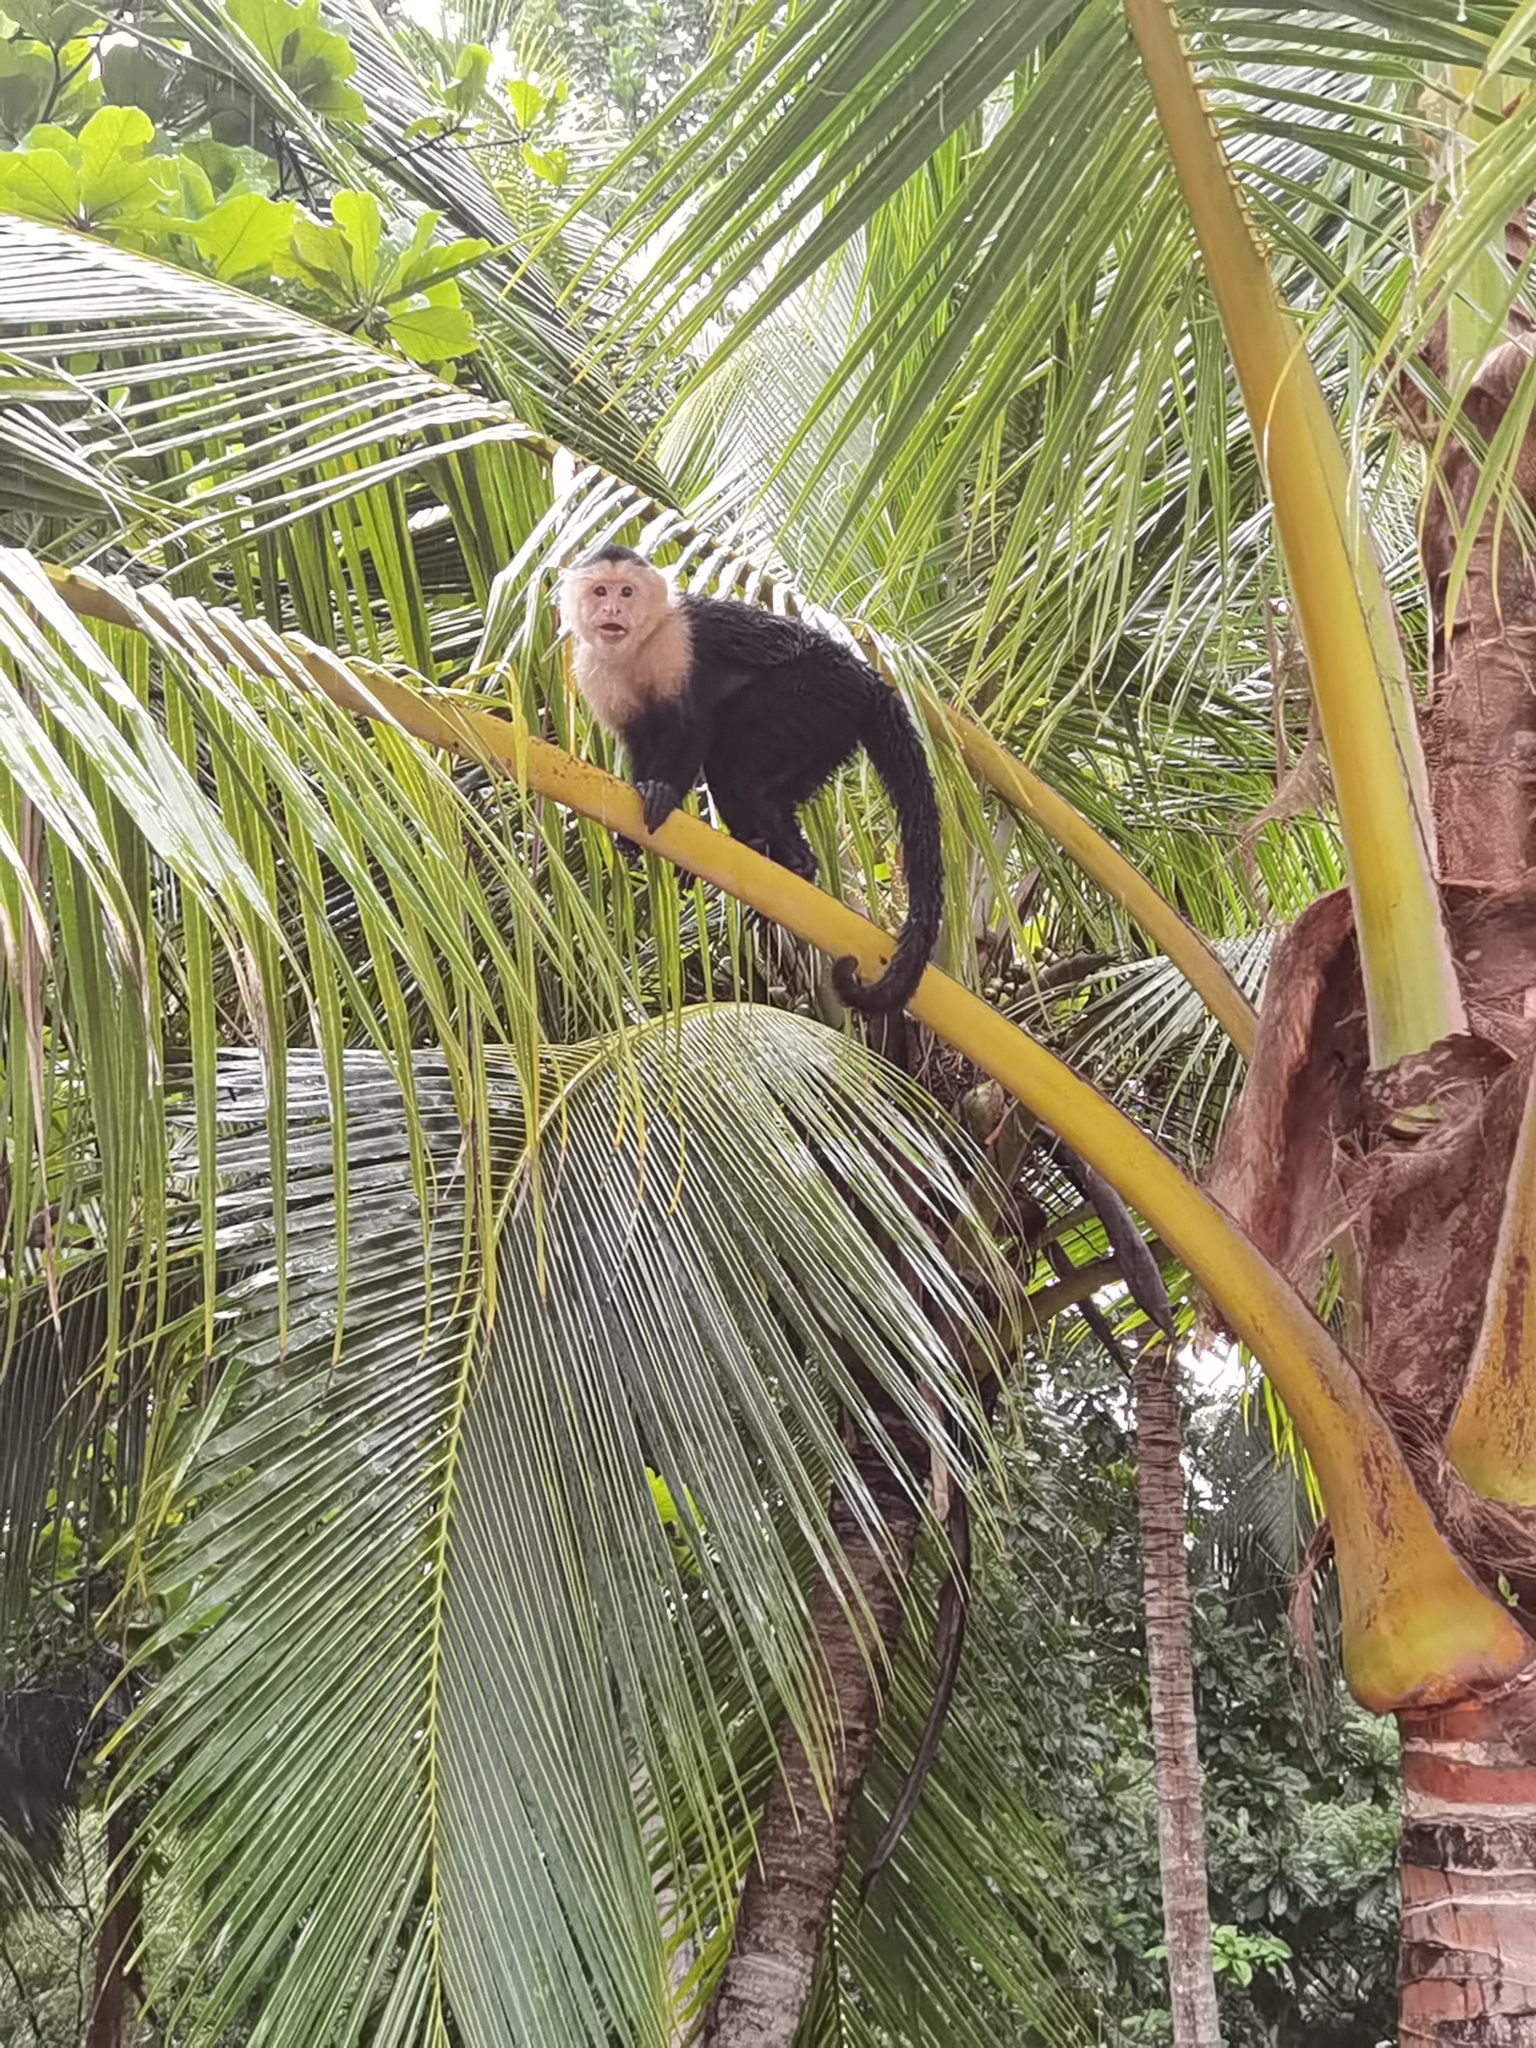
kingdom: Animalia
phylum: Chordata
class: Mammalia
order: Primates
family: Cebidae
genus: Cebus
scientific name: Cebus imitator
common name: Panamanian white-faced capuchin
